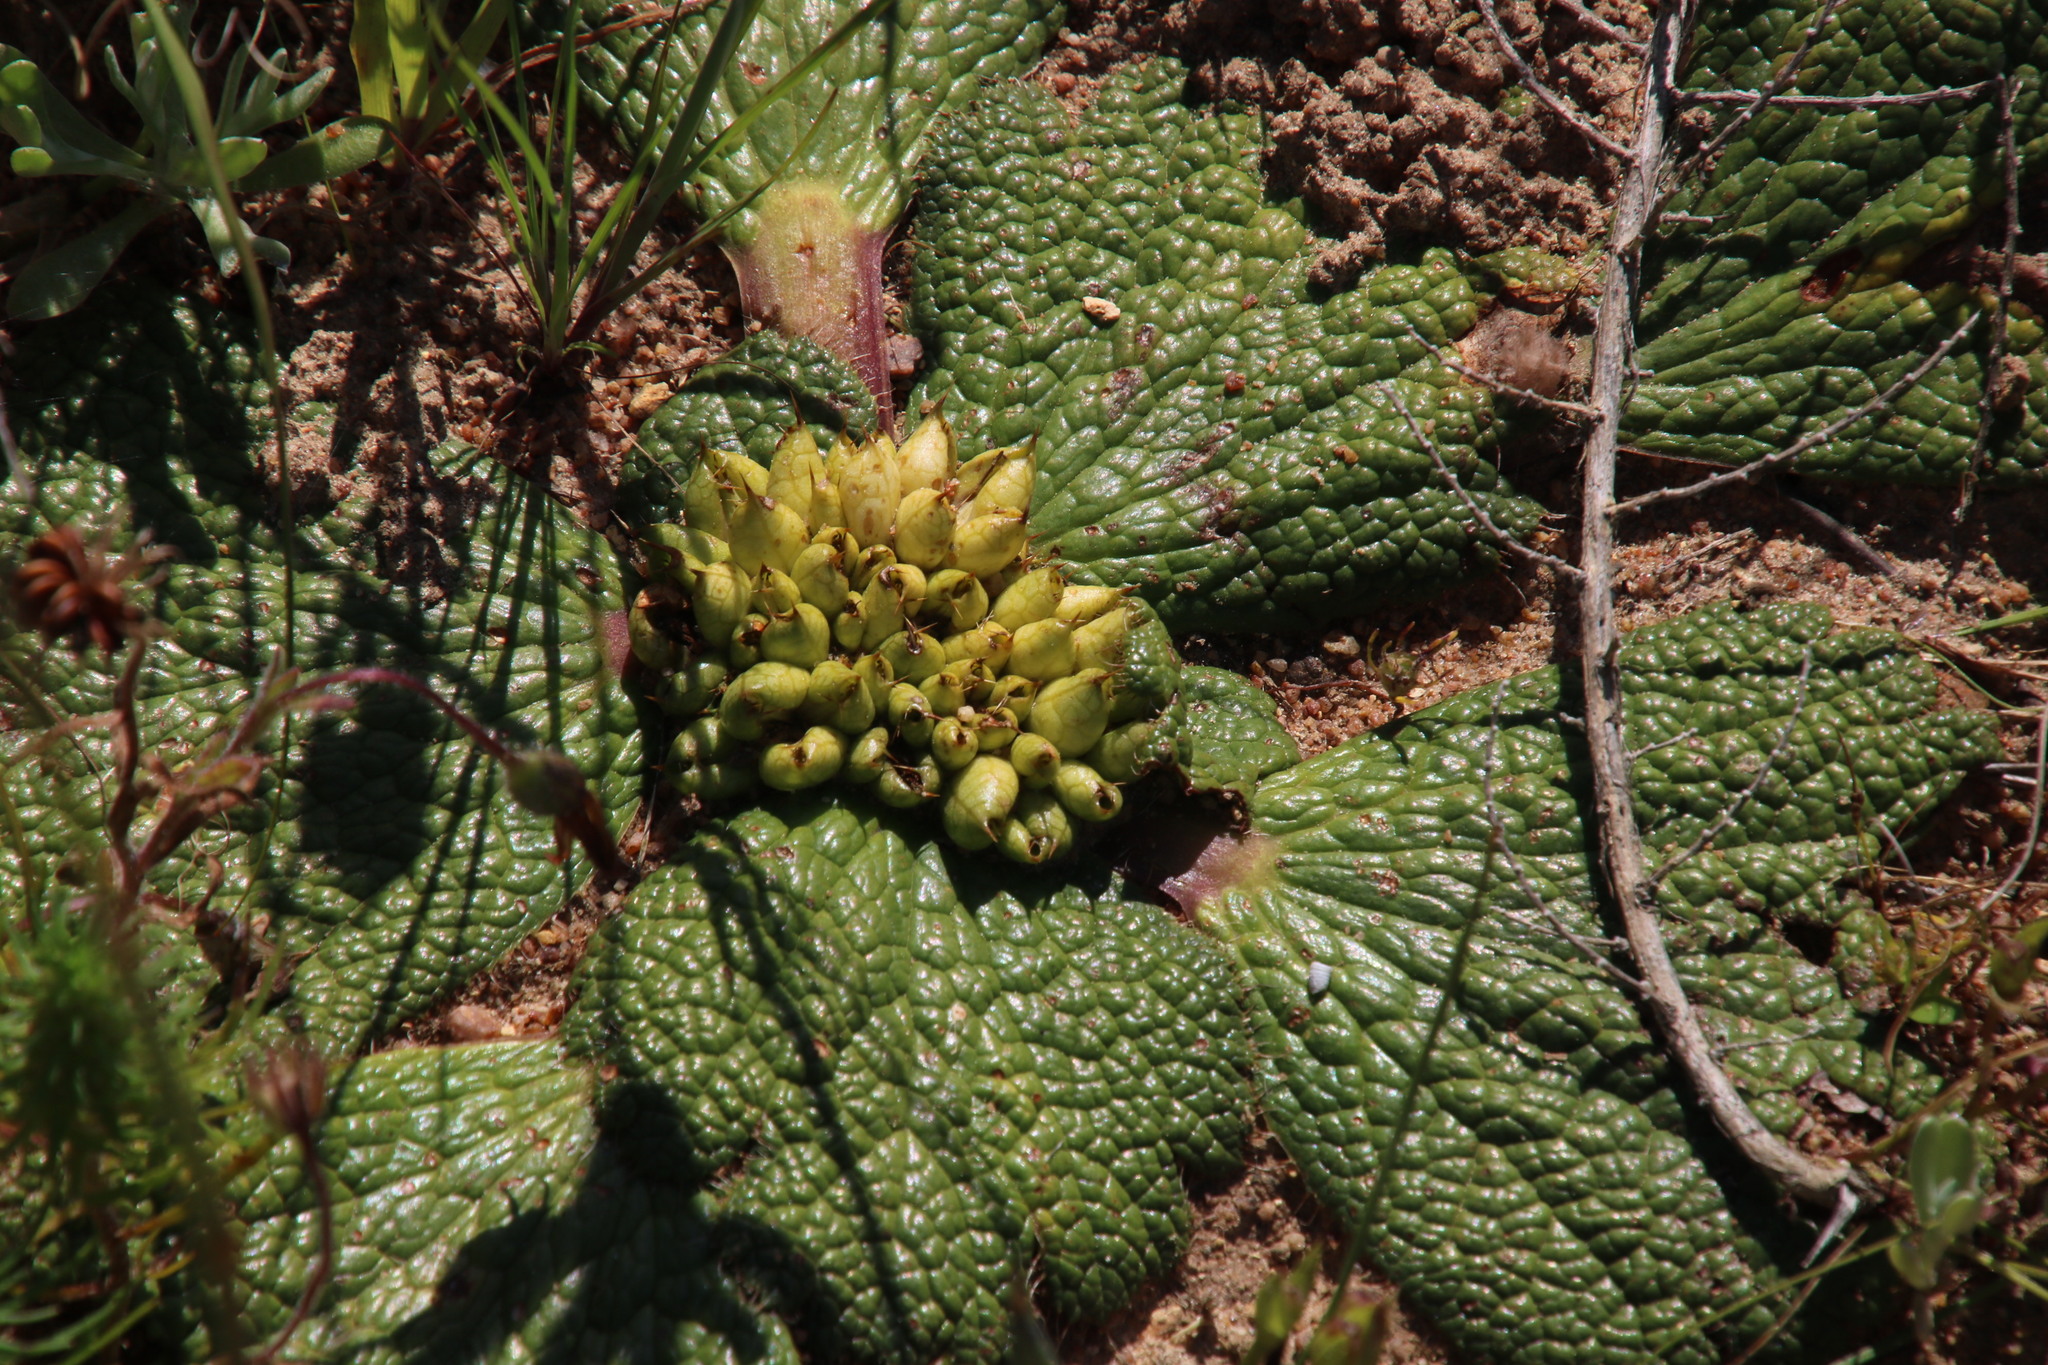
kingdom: Plantae
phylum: Tracheophyta
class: Magnoliopsida
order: Apiales
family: Apiaceae
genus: Arctopus
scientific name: Arctopus dregei
